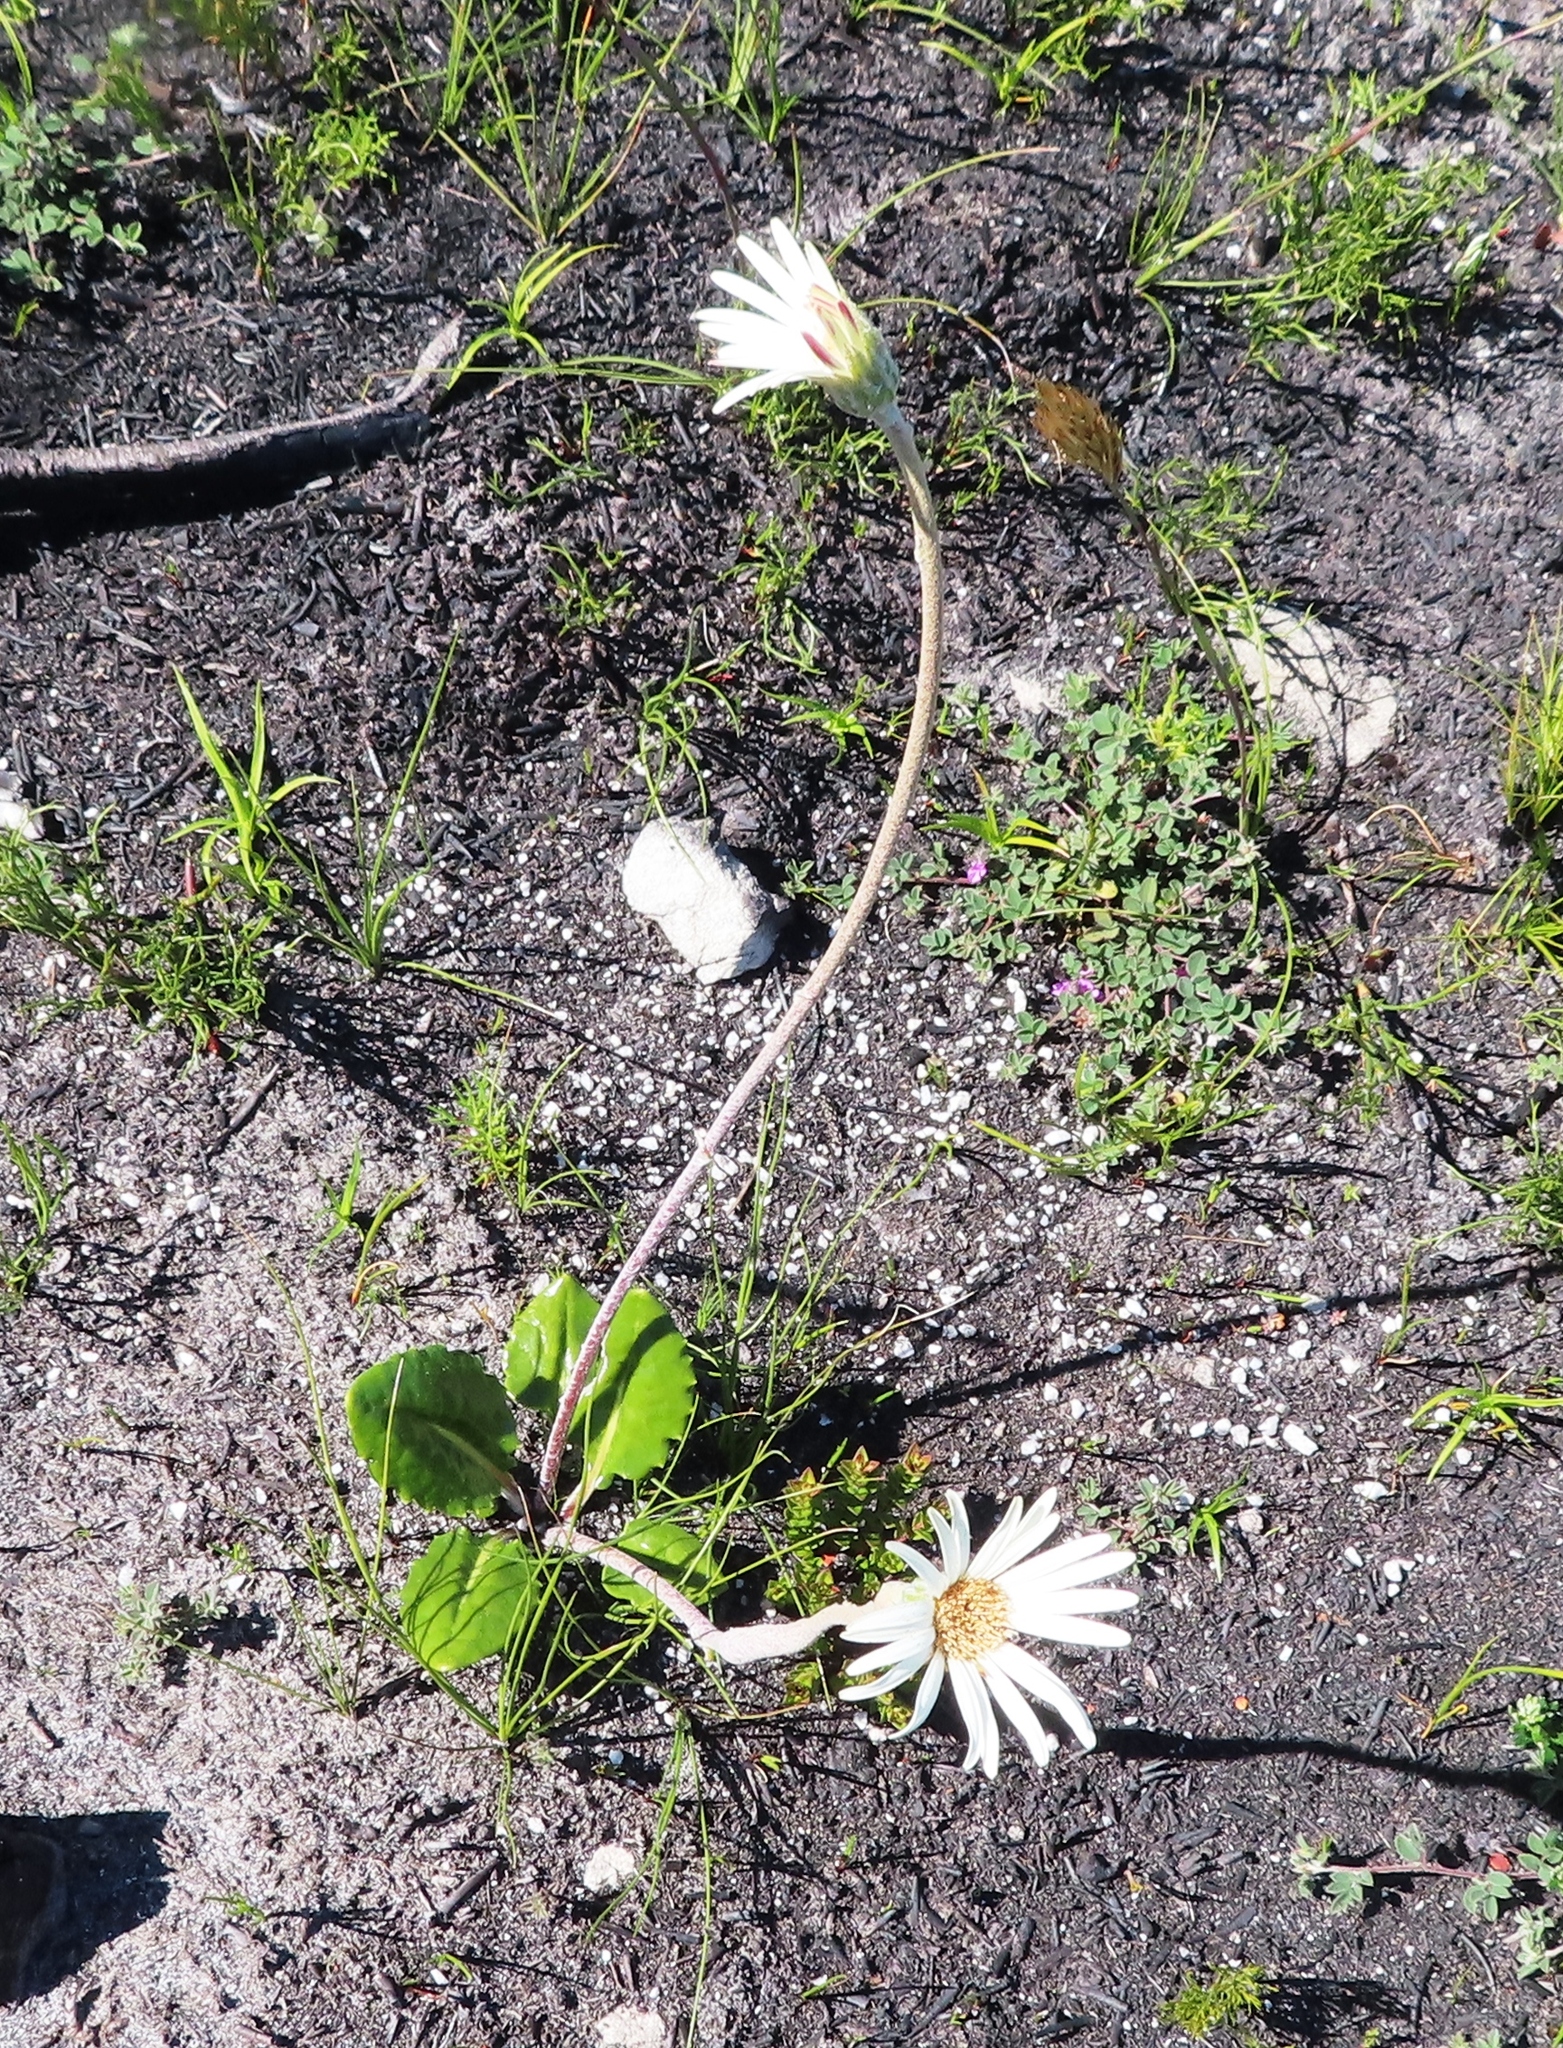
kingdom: Plantae
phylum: Tracheophyta
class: Magnoliopsida
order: Asterales
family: Asteraceae
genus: Gerbera
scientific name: Gerbera tomentosa
